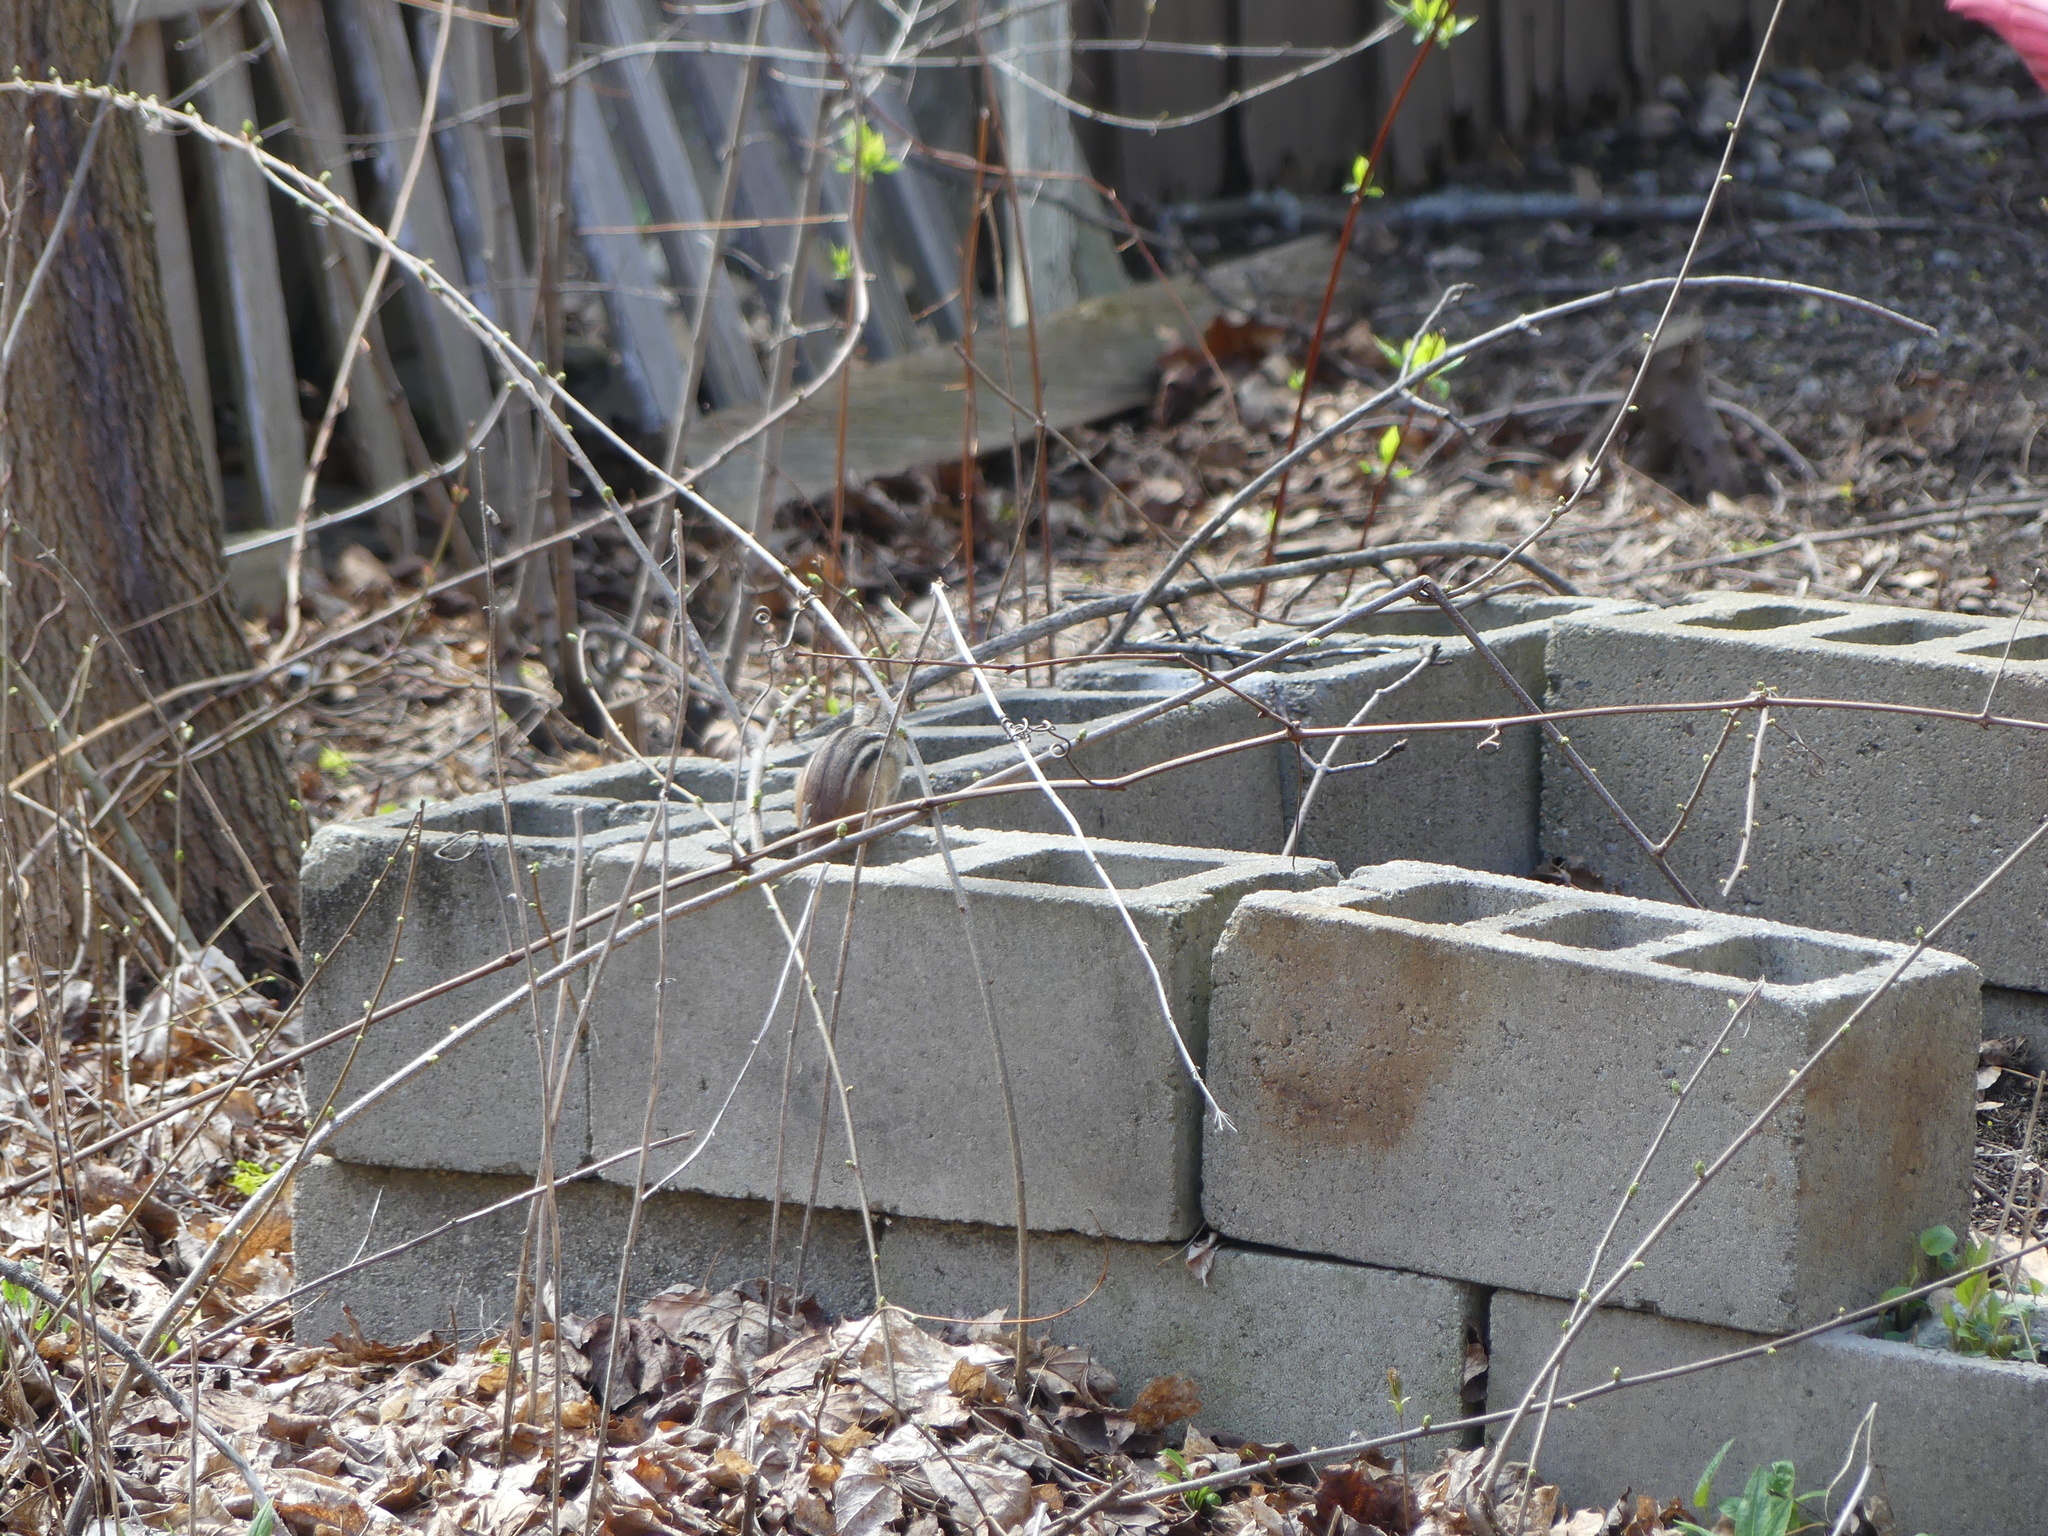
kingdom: Animalia
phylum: Chordata
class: Mammalia
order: Rodentia
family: Sciuridae
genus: Tamias
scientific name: Tamias striatus
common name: Eastern chipmunk
